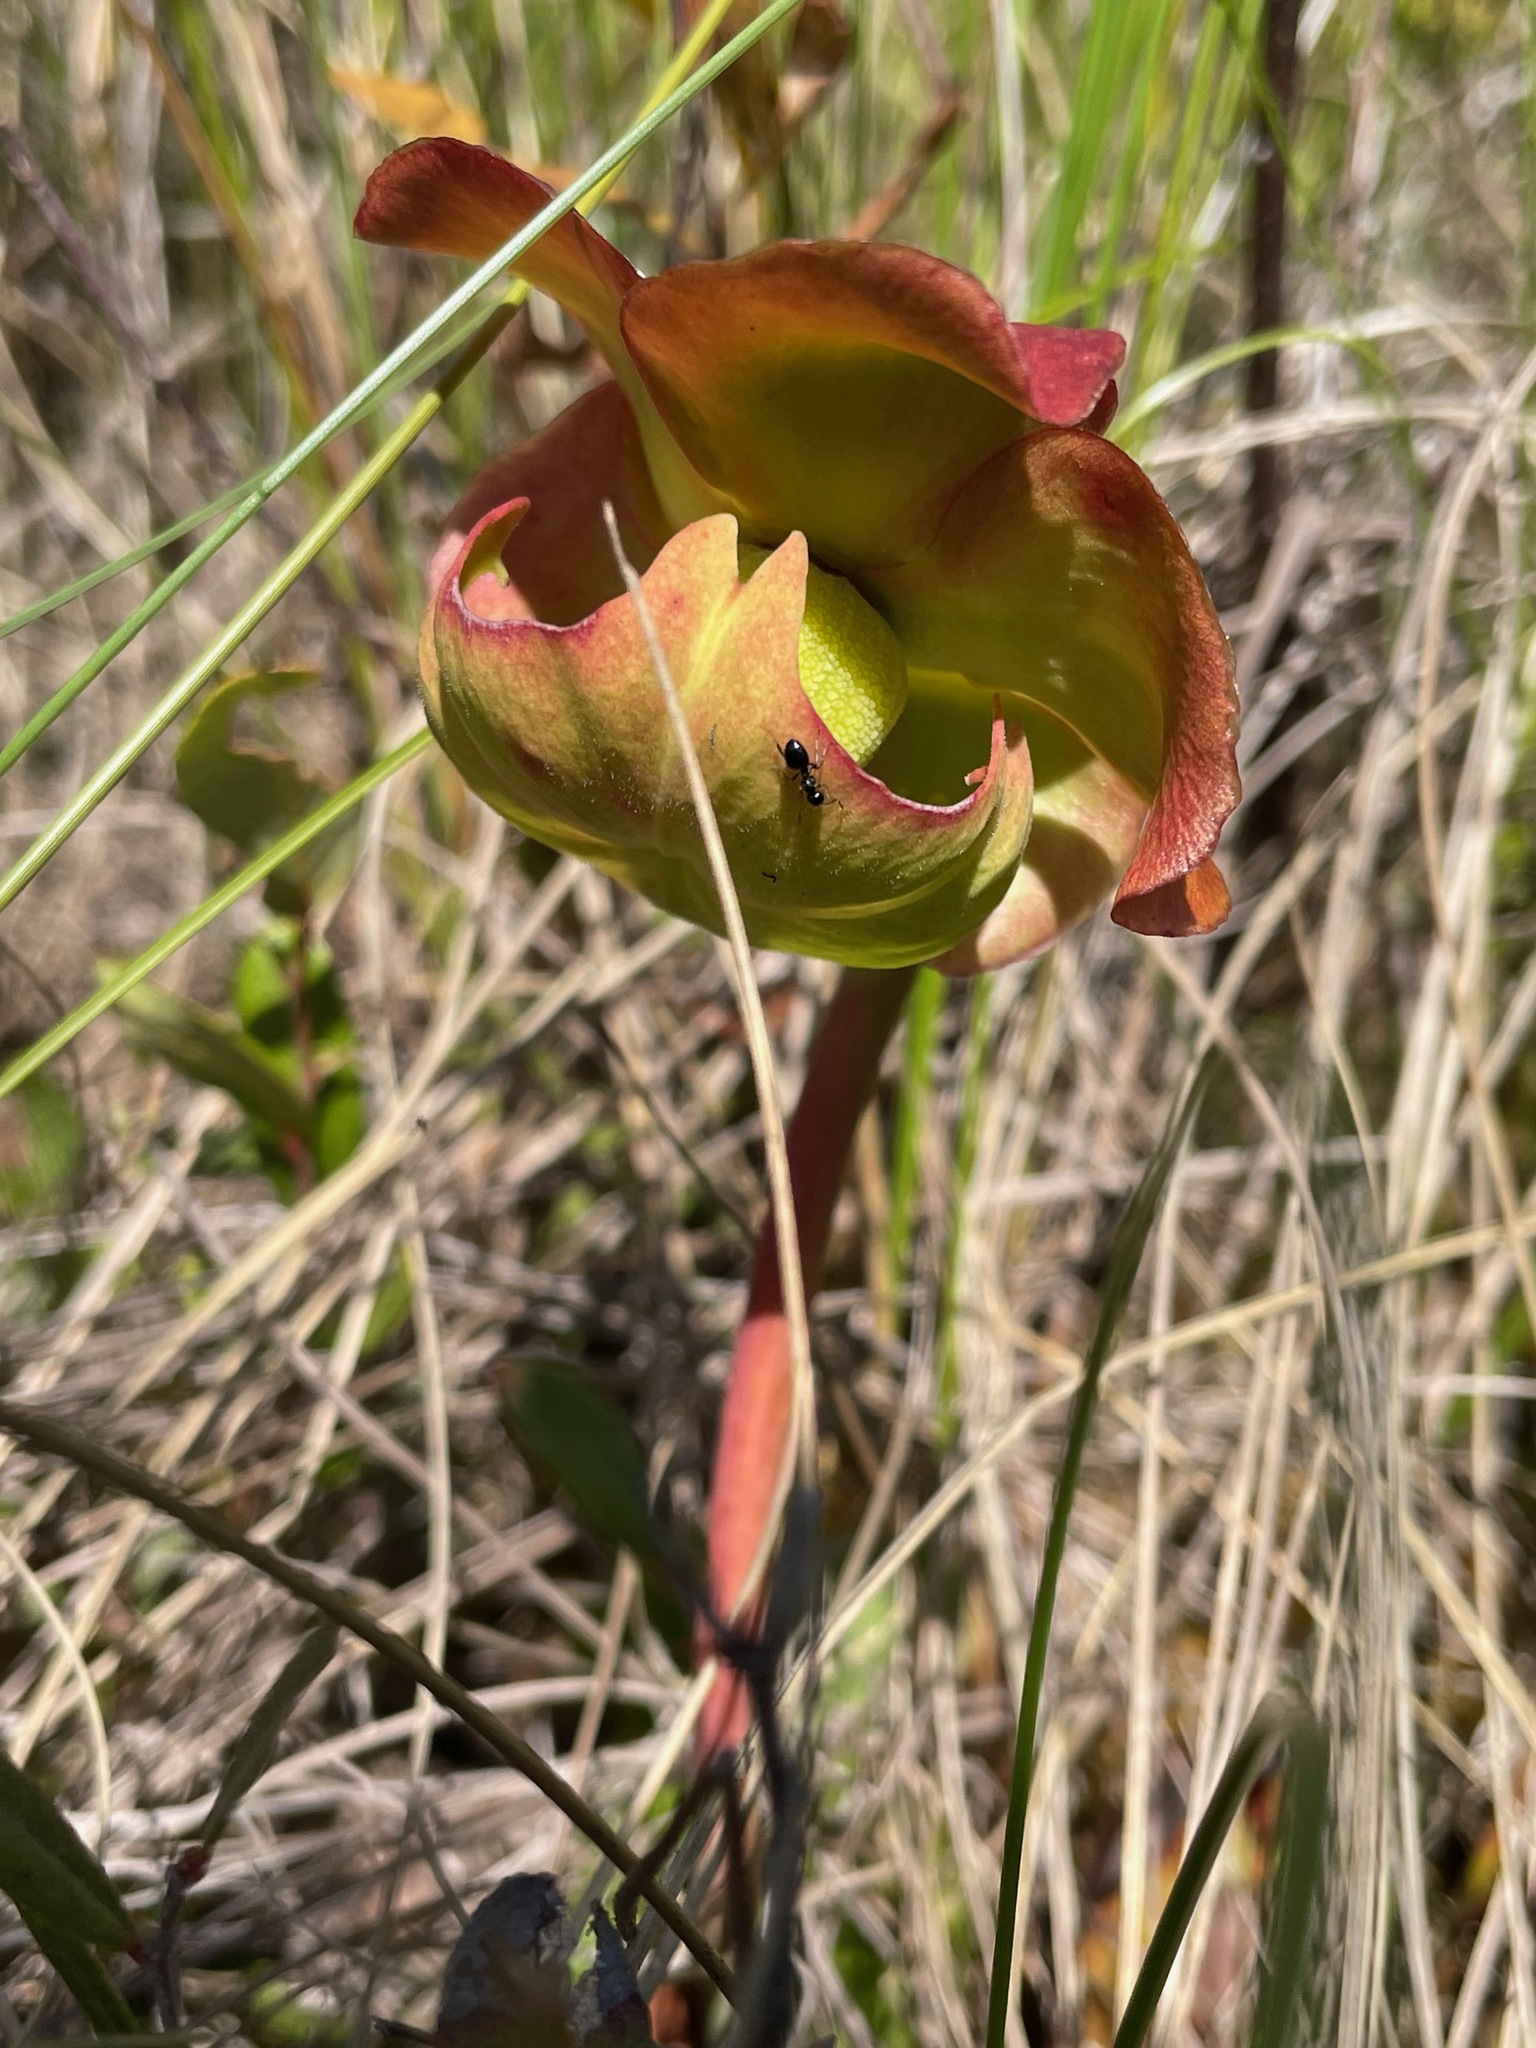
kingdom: Plantae
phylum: Tracheophyta
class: Magnoliopsida
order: Ericales
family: Sarraceniaceae
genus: Sarracenia
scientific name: Sarracenia purpurea
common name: Pitcherplant
